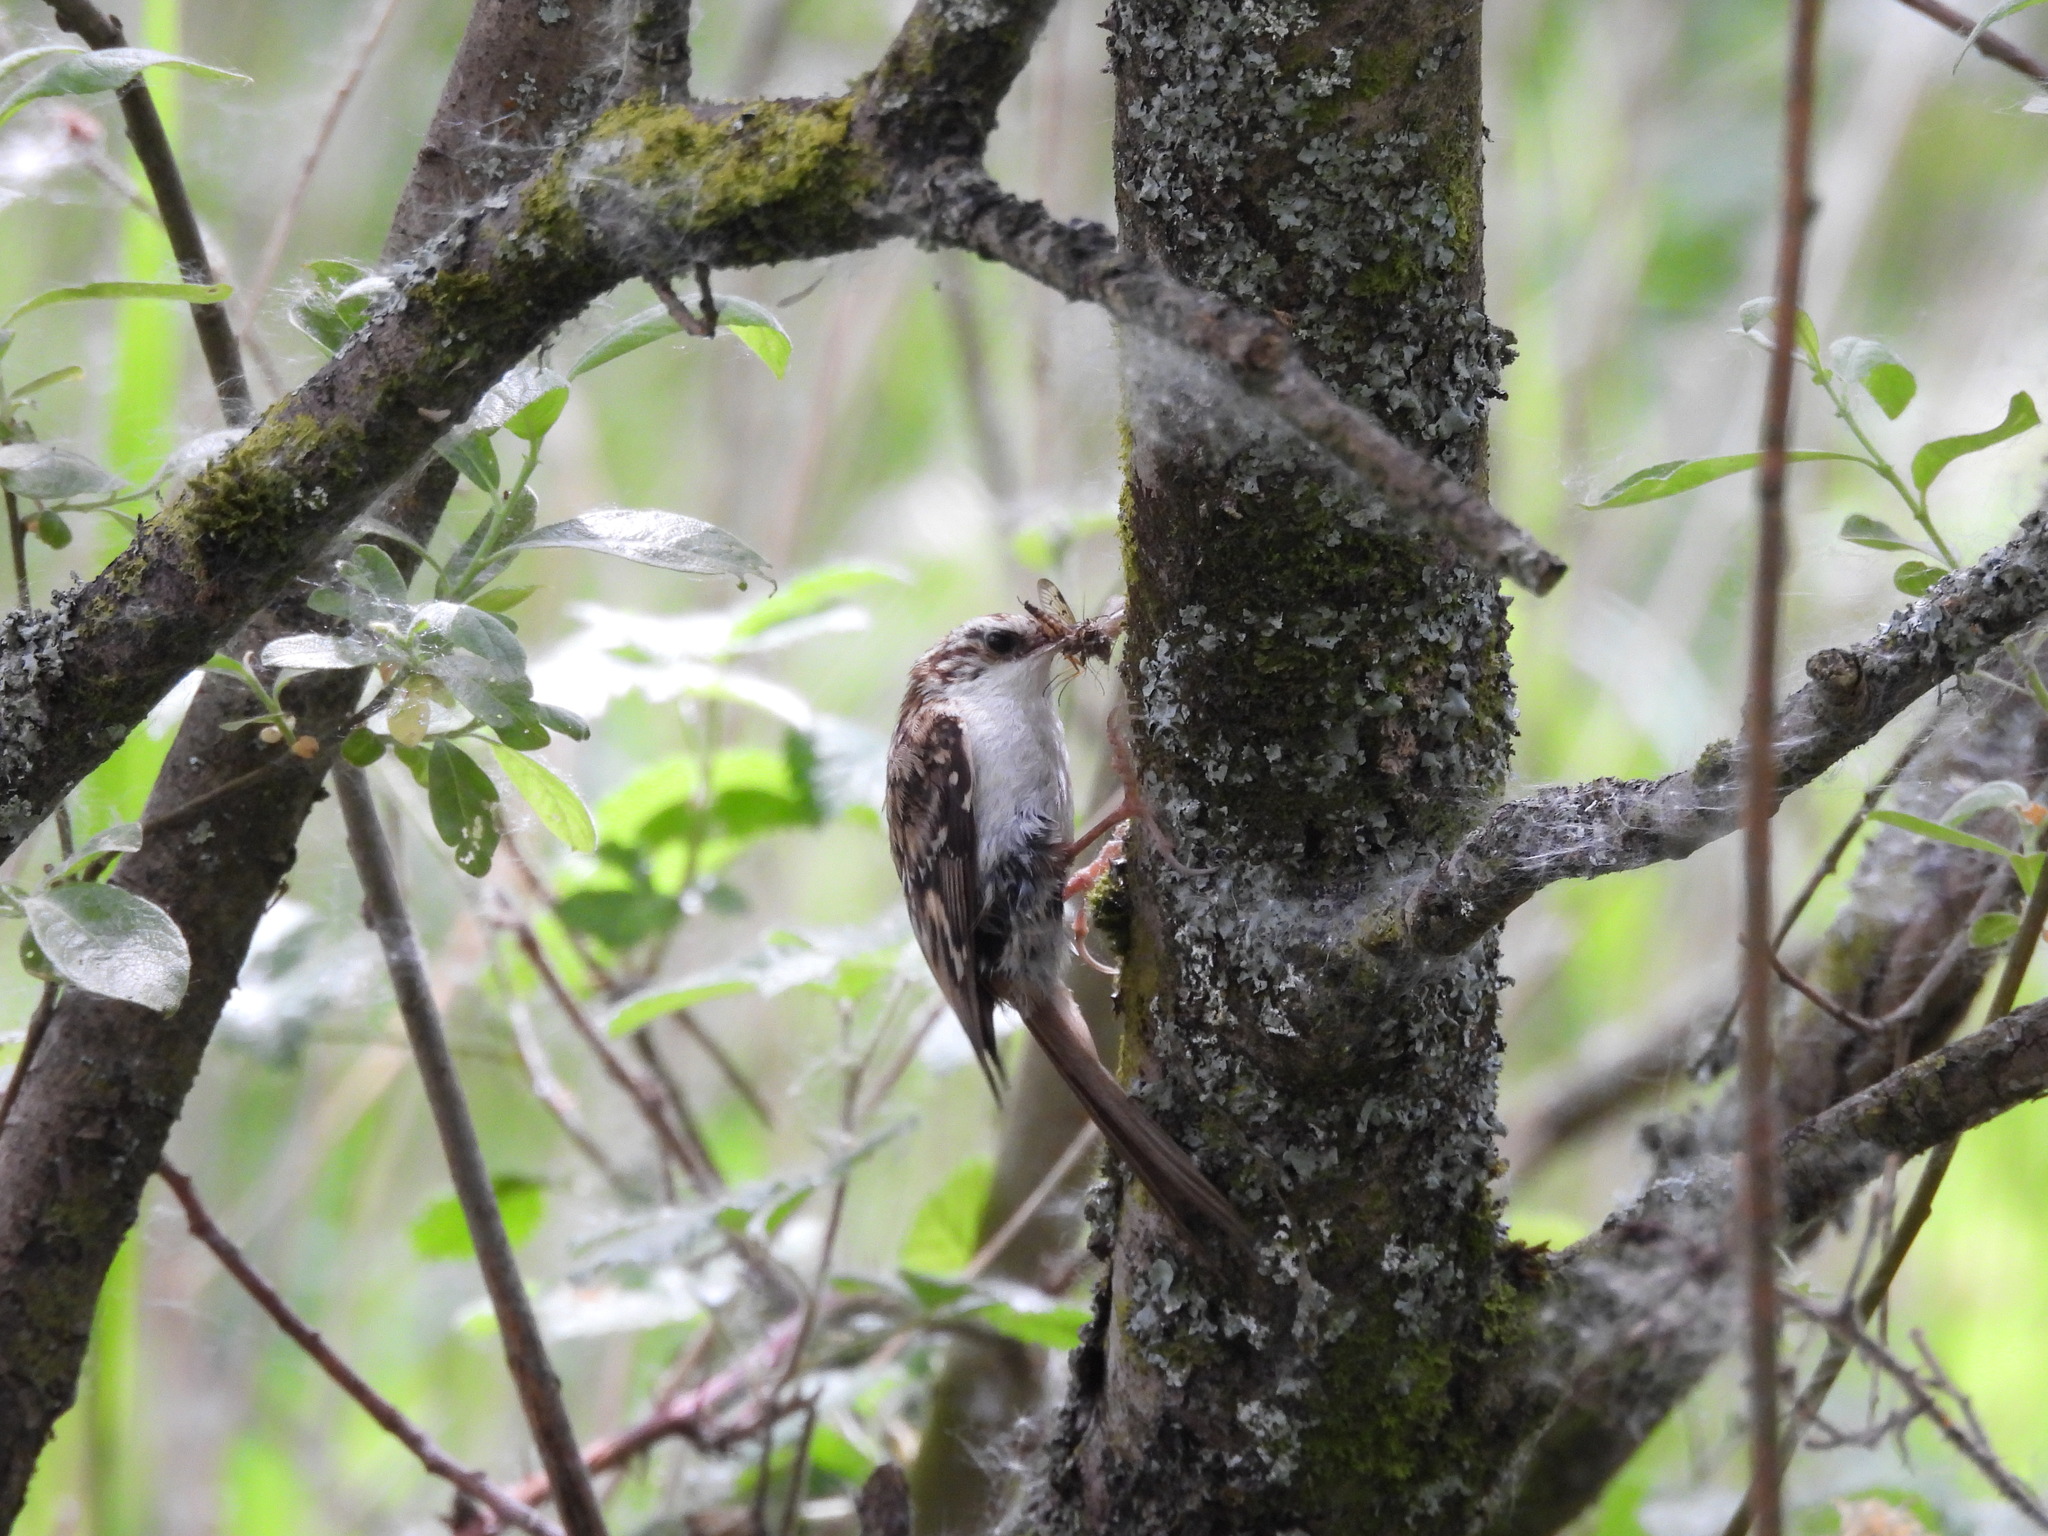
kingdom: Animalia
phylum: Chordata
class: Aves
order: Passeriformes
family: Certhiidae
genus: Certhia
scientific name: Certhia familiaris
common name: Eurasian treecreeper
